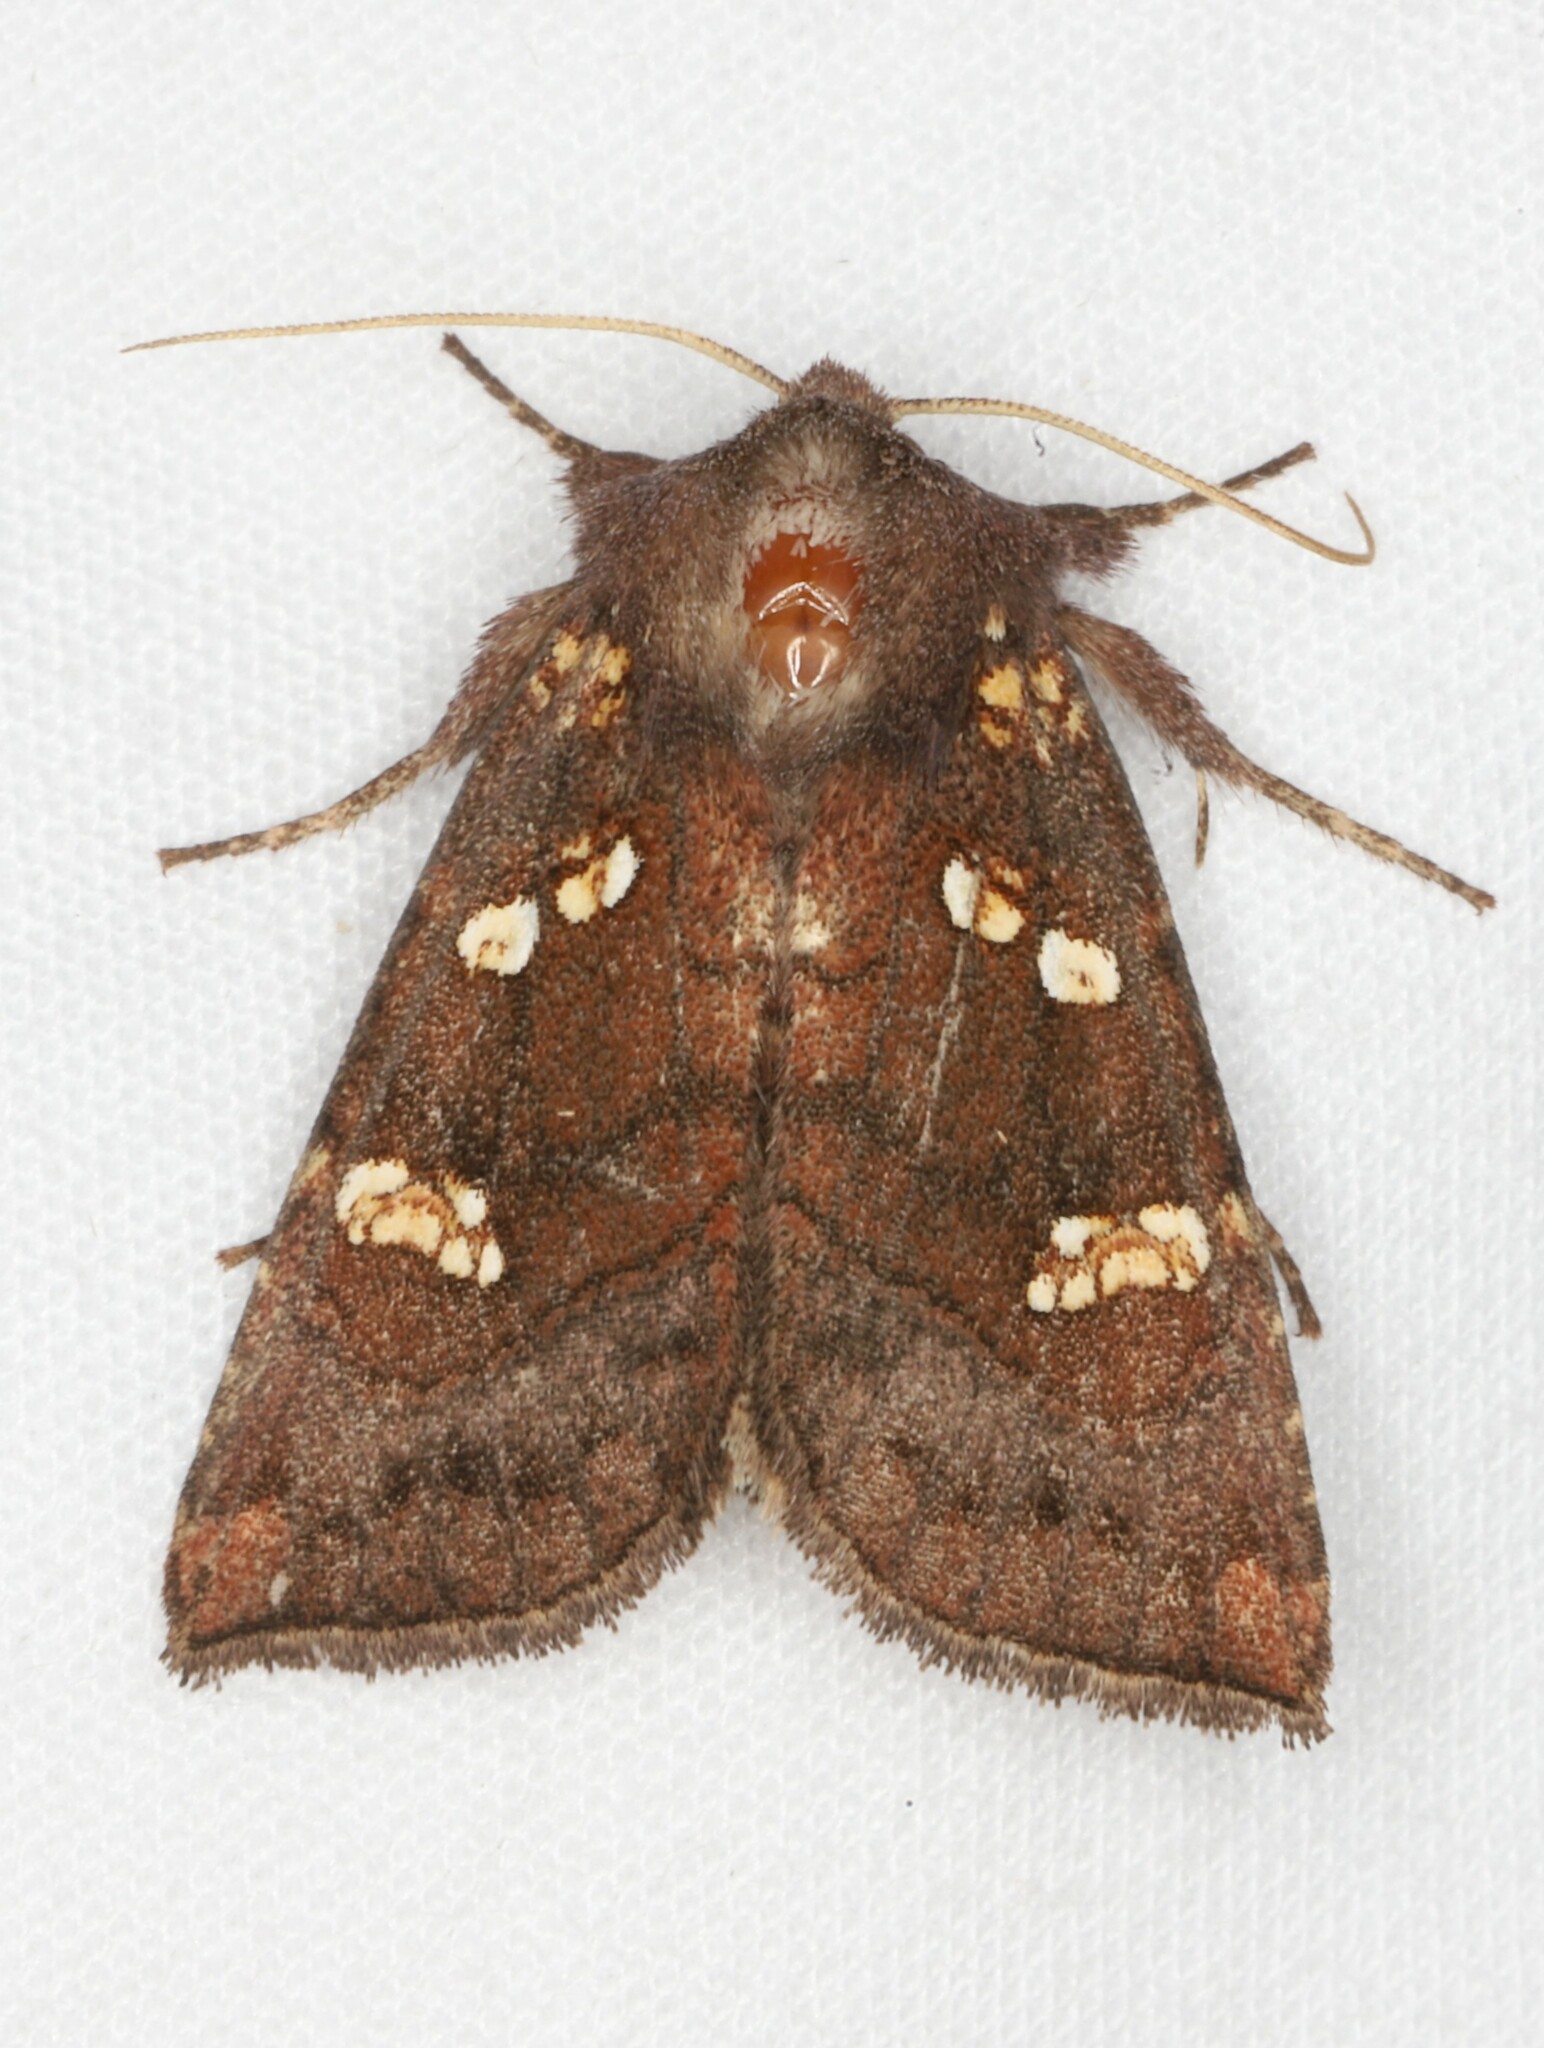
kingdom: Animalia
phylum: Arthropoda
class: Insecta
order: Lepidoptera
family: Noctuidae
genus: Papaipema
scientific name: Papaipema unimoda
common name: Meadow rue borer moth
